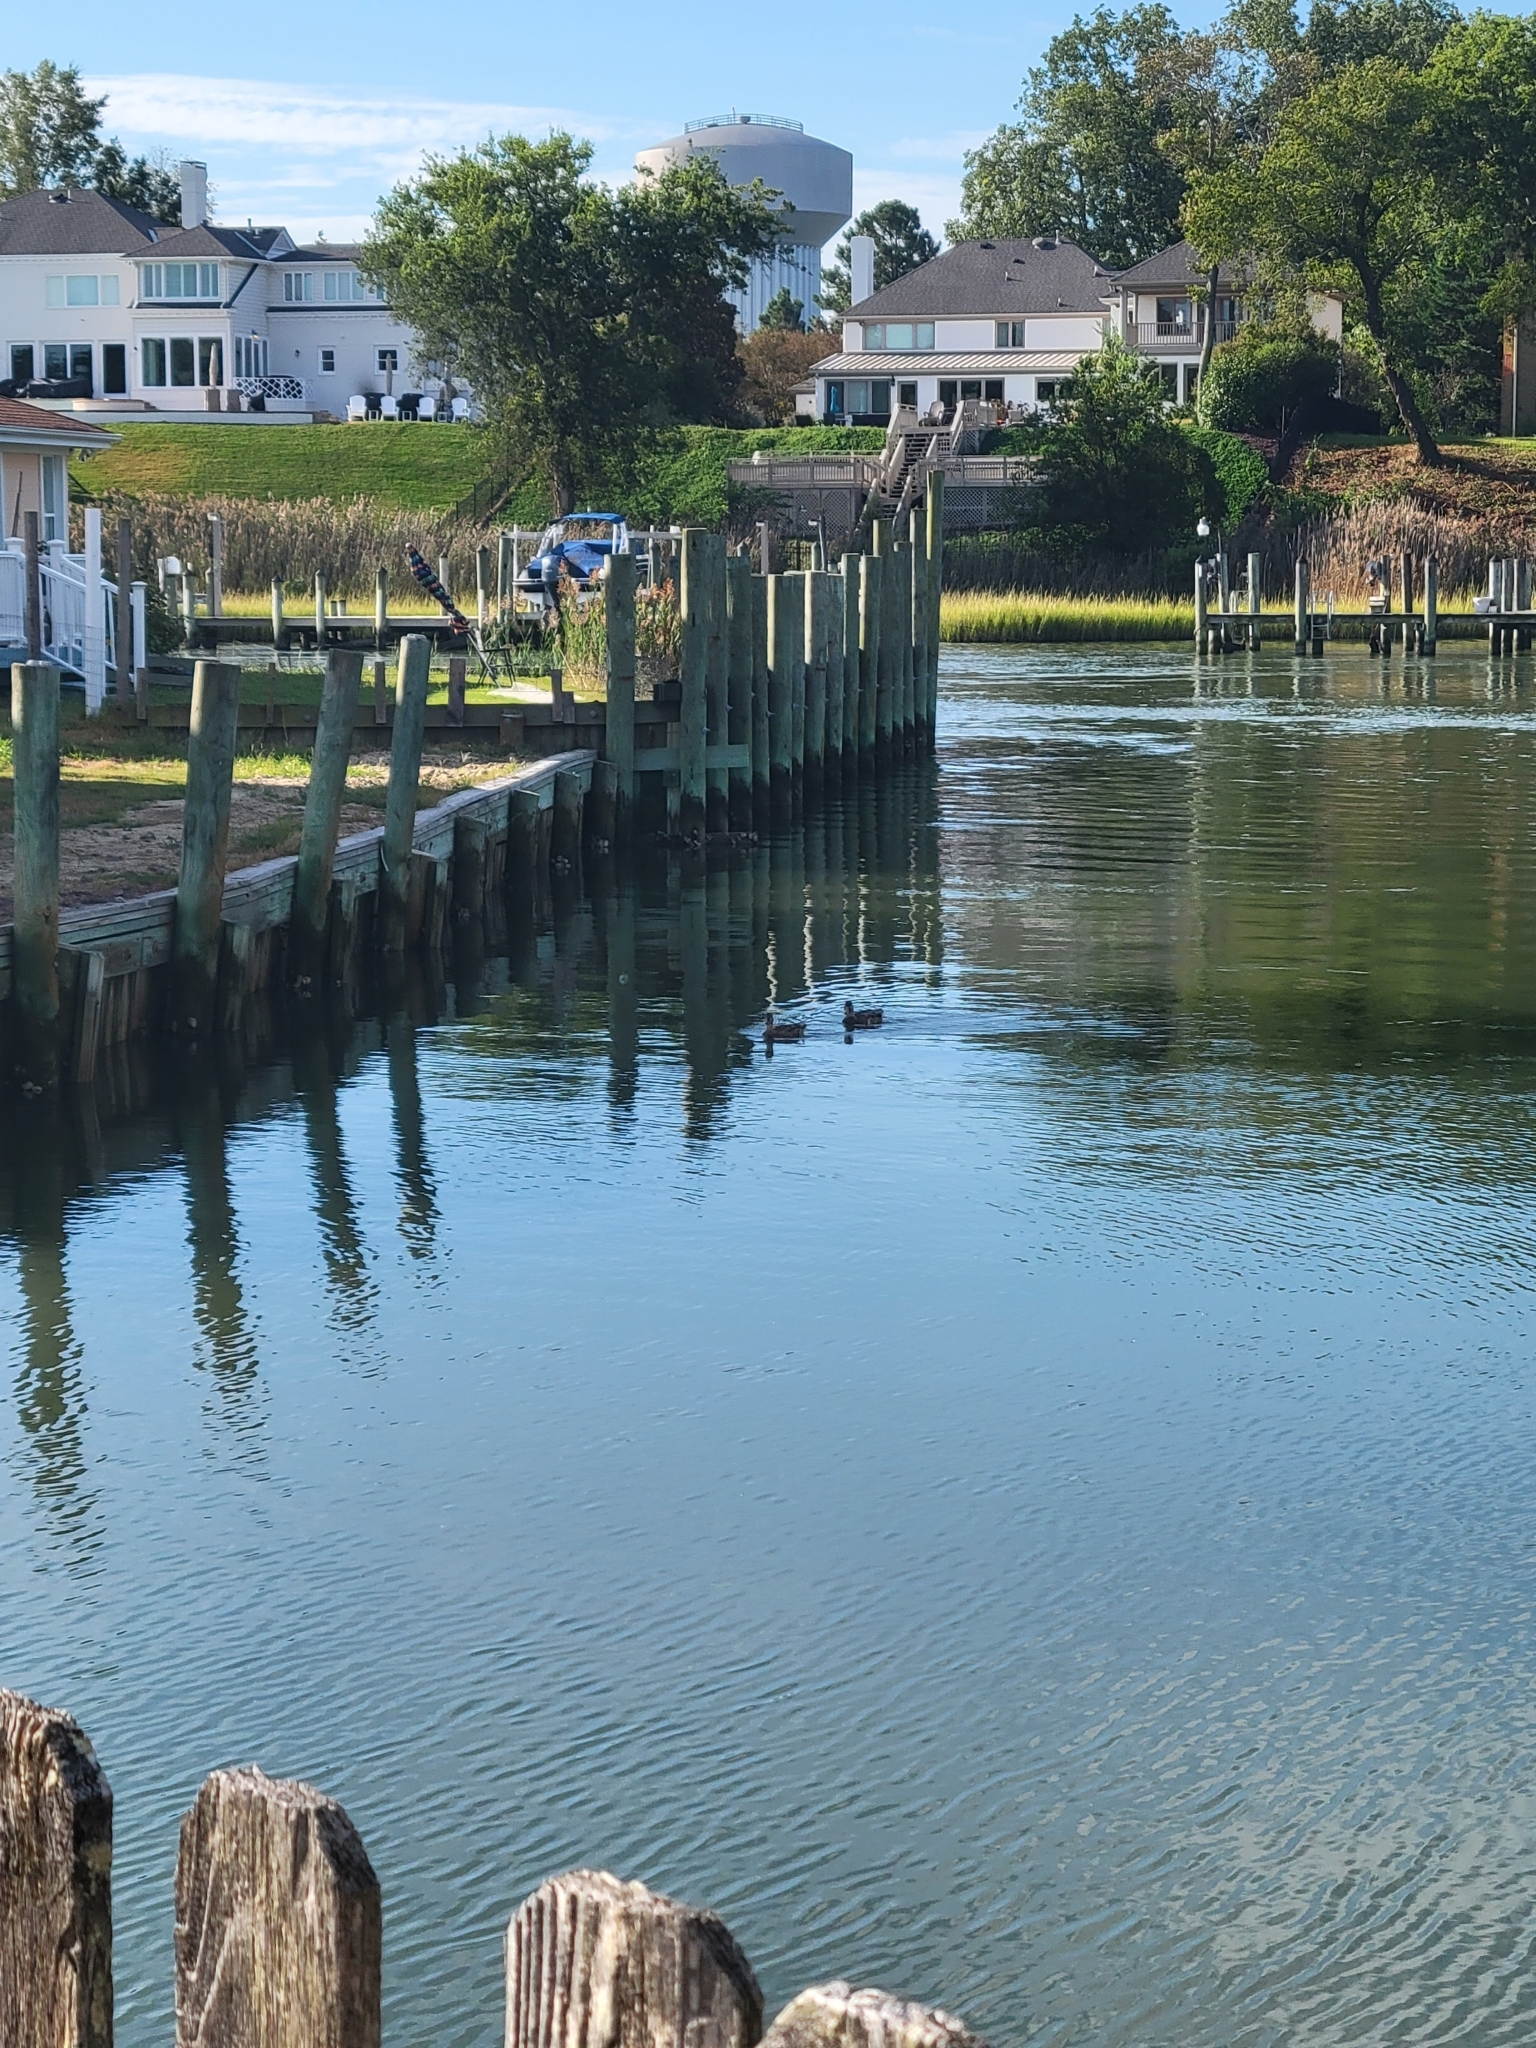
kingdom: Animalia
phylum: Chordata
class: Aves
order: Anseriformes
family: Anatidae
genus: Anas
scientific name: Anas platyrhynchos
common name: Mallard
